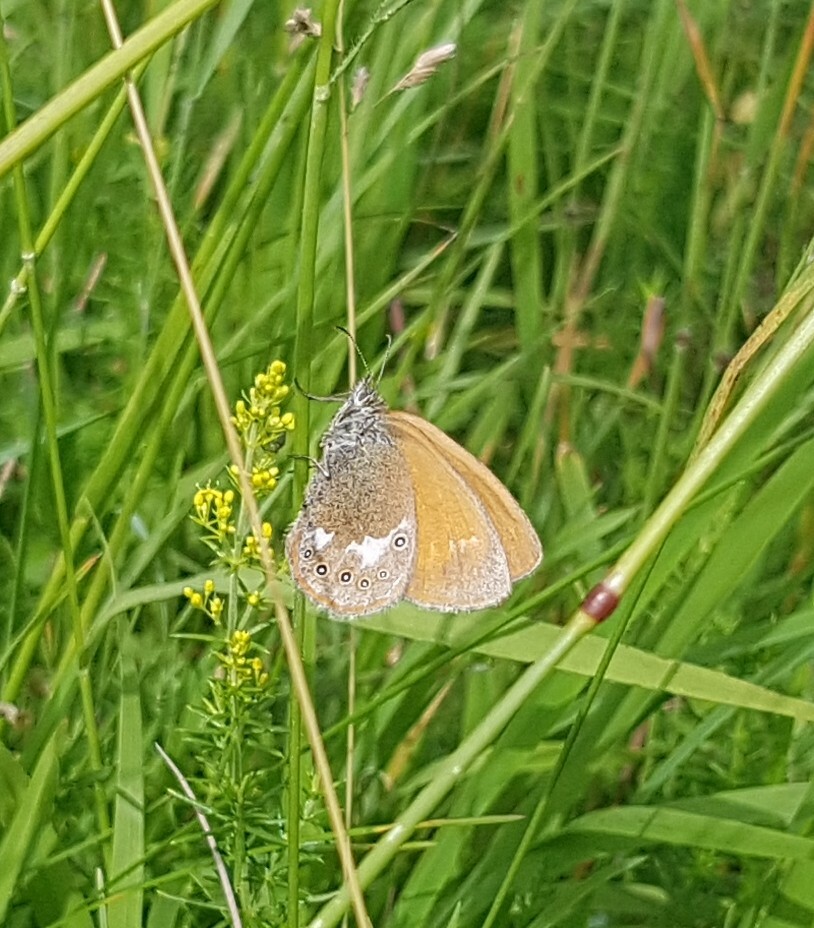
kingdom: Animalia
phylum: Arthropoda
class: Insecta
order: Lepidoptera
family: Nymphalidae
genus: Coenonympha
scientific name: Coenonympha iphis
